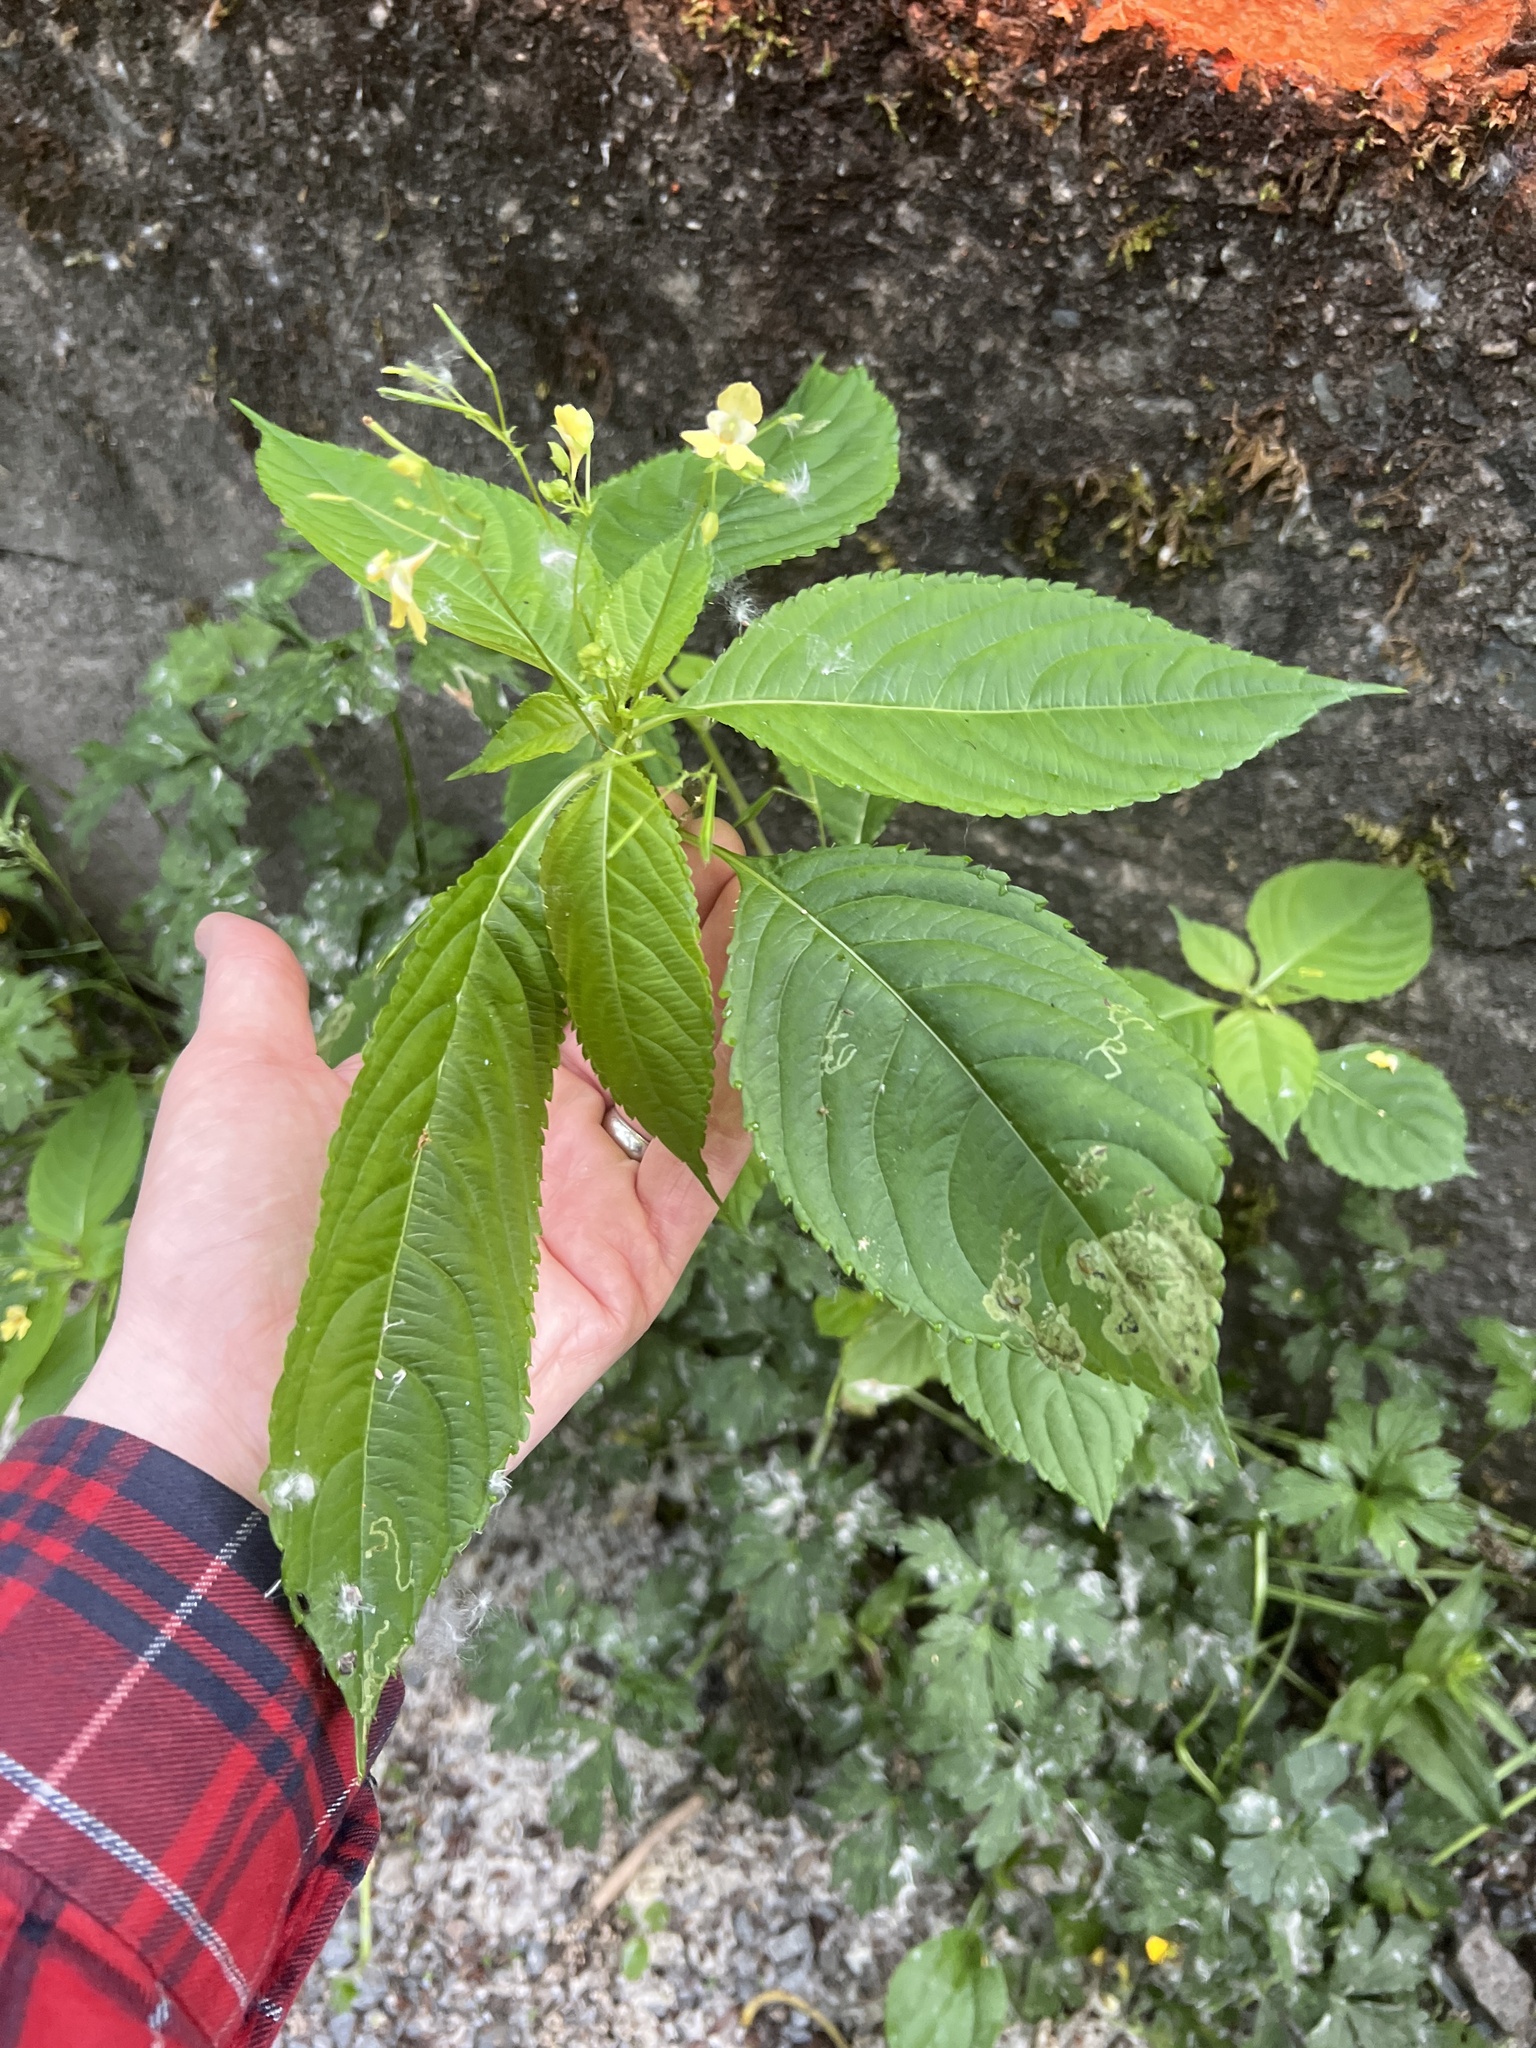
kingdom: Plantae
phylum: Tracheophyta
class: Magnoliopsida
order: Ericales
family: Balsaminaceae
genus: Impatiens
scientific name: Impatiens parviflora
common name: Small balsam
